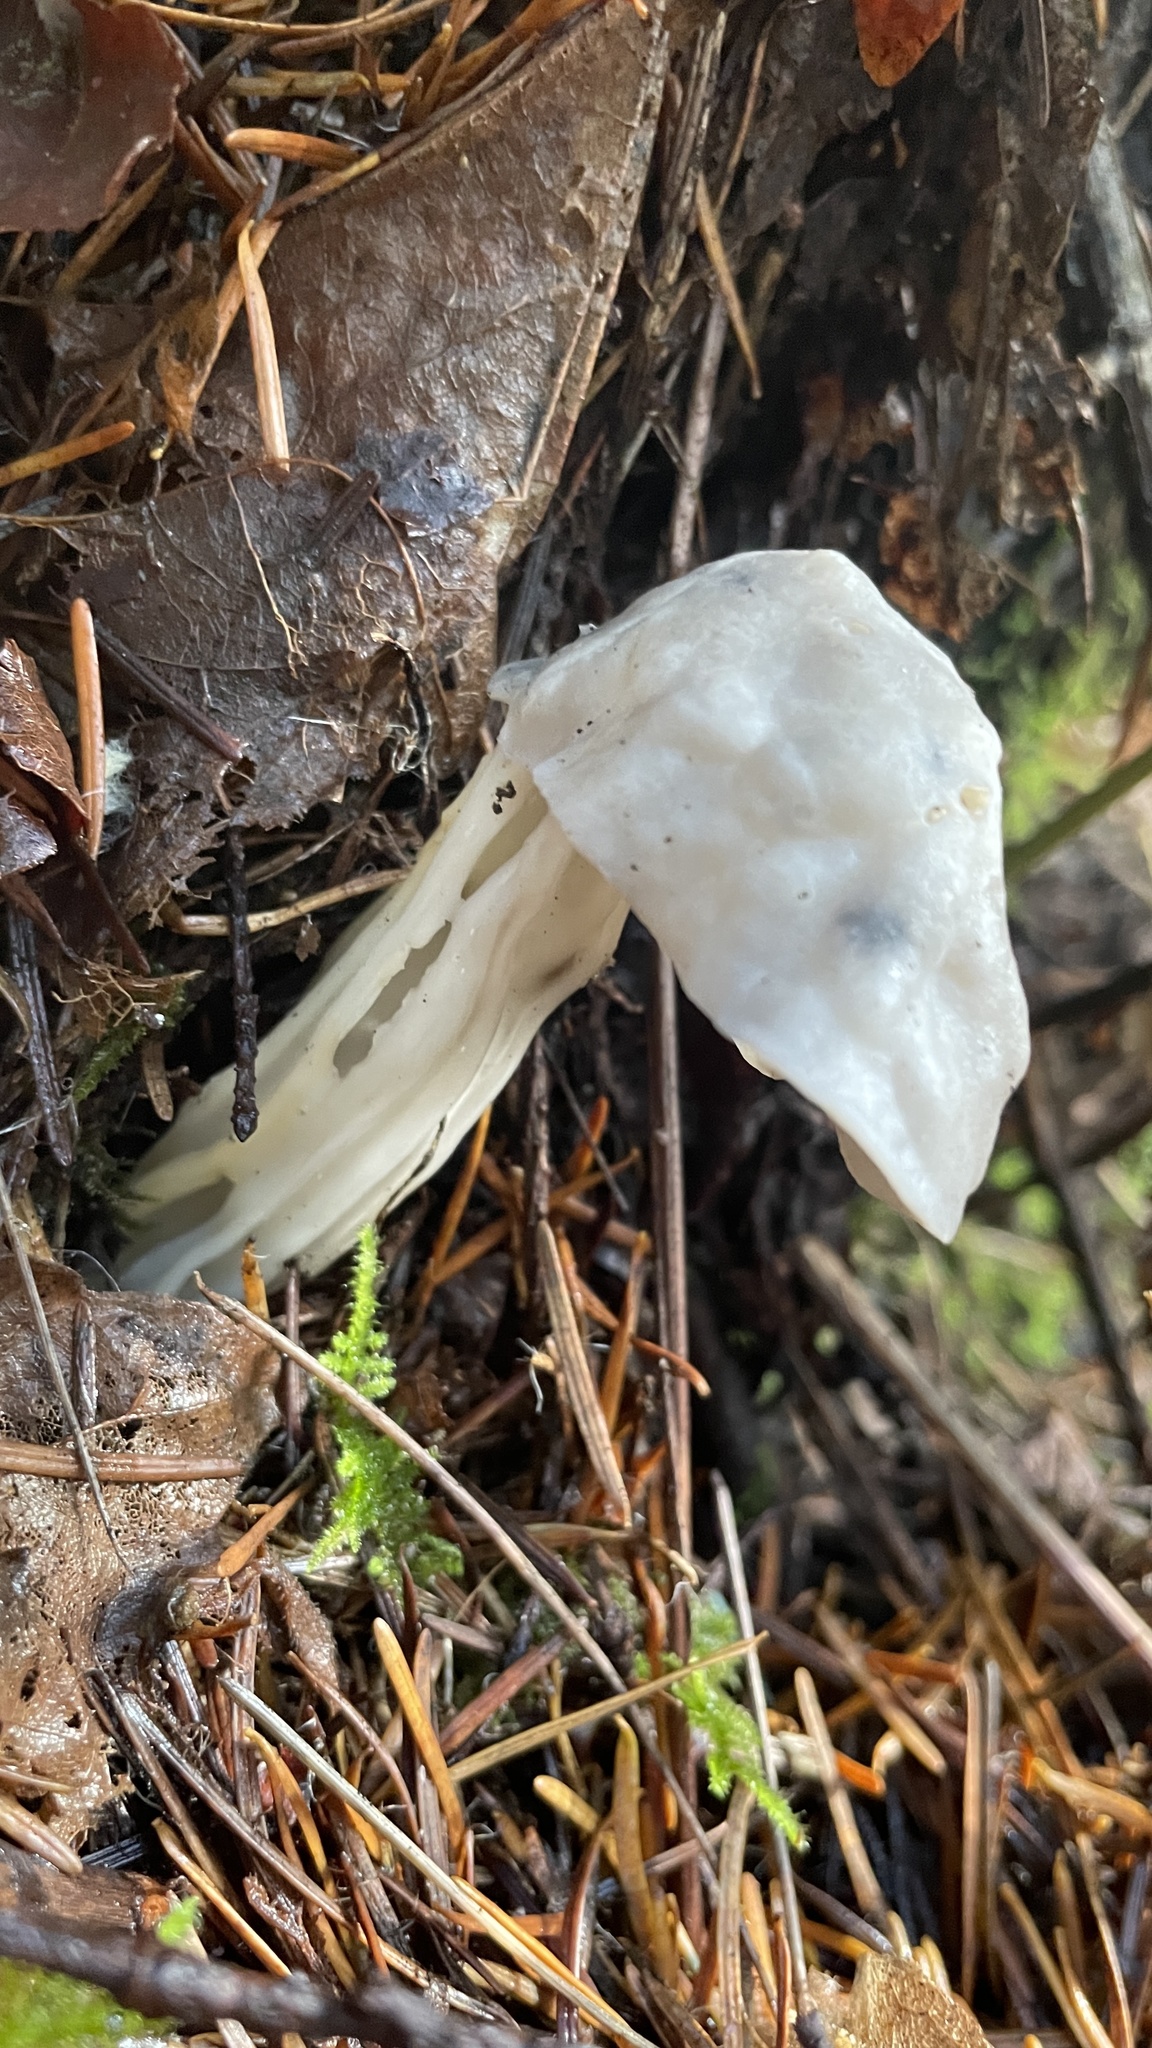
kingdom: Fungi
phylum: Ascomycota
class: Pezizomycetes
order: Pezizales
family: Helvellaceae
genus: Helvella
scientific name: Helvella crispa
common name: White saddle
